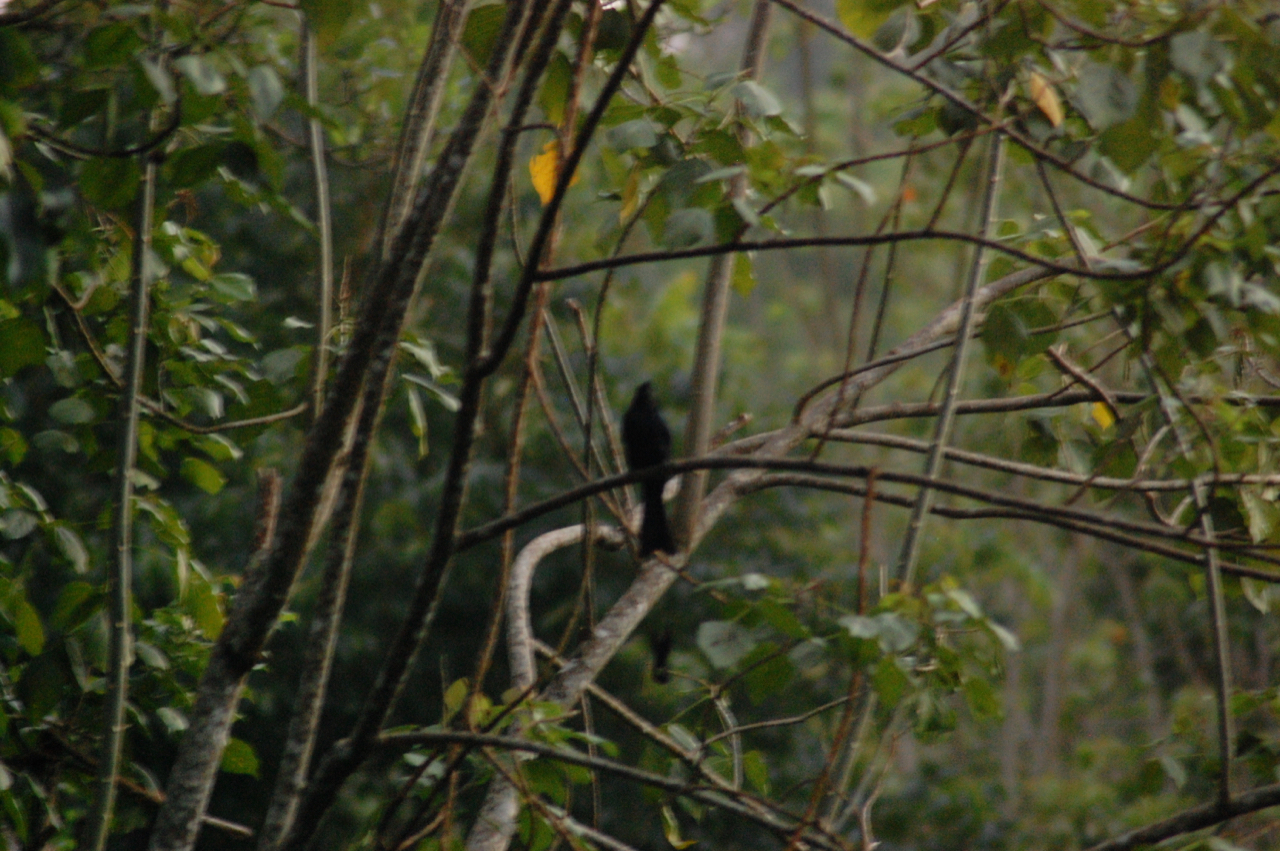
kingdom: Animalia
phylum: Chordata
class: Aves
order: Passeriformes
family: Dicruridae
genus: Dicrurus
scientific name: Dicrurus paradiseus
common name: Greater racket-tailed drongo
